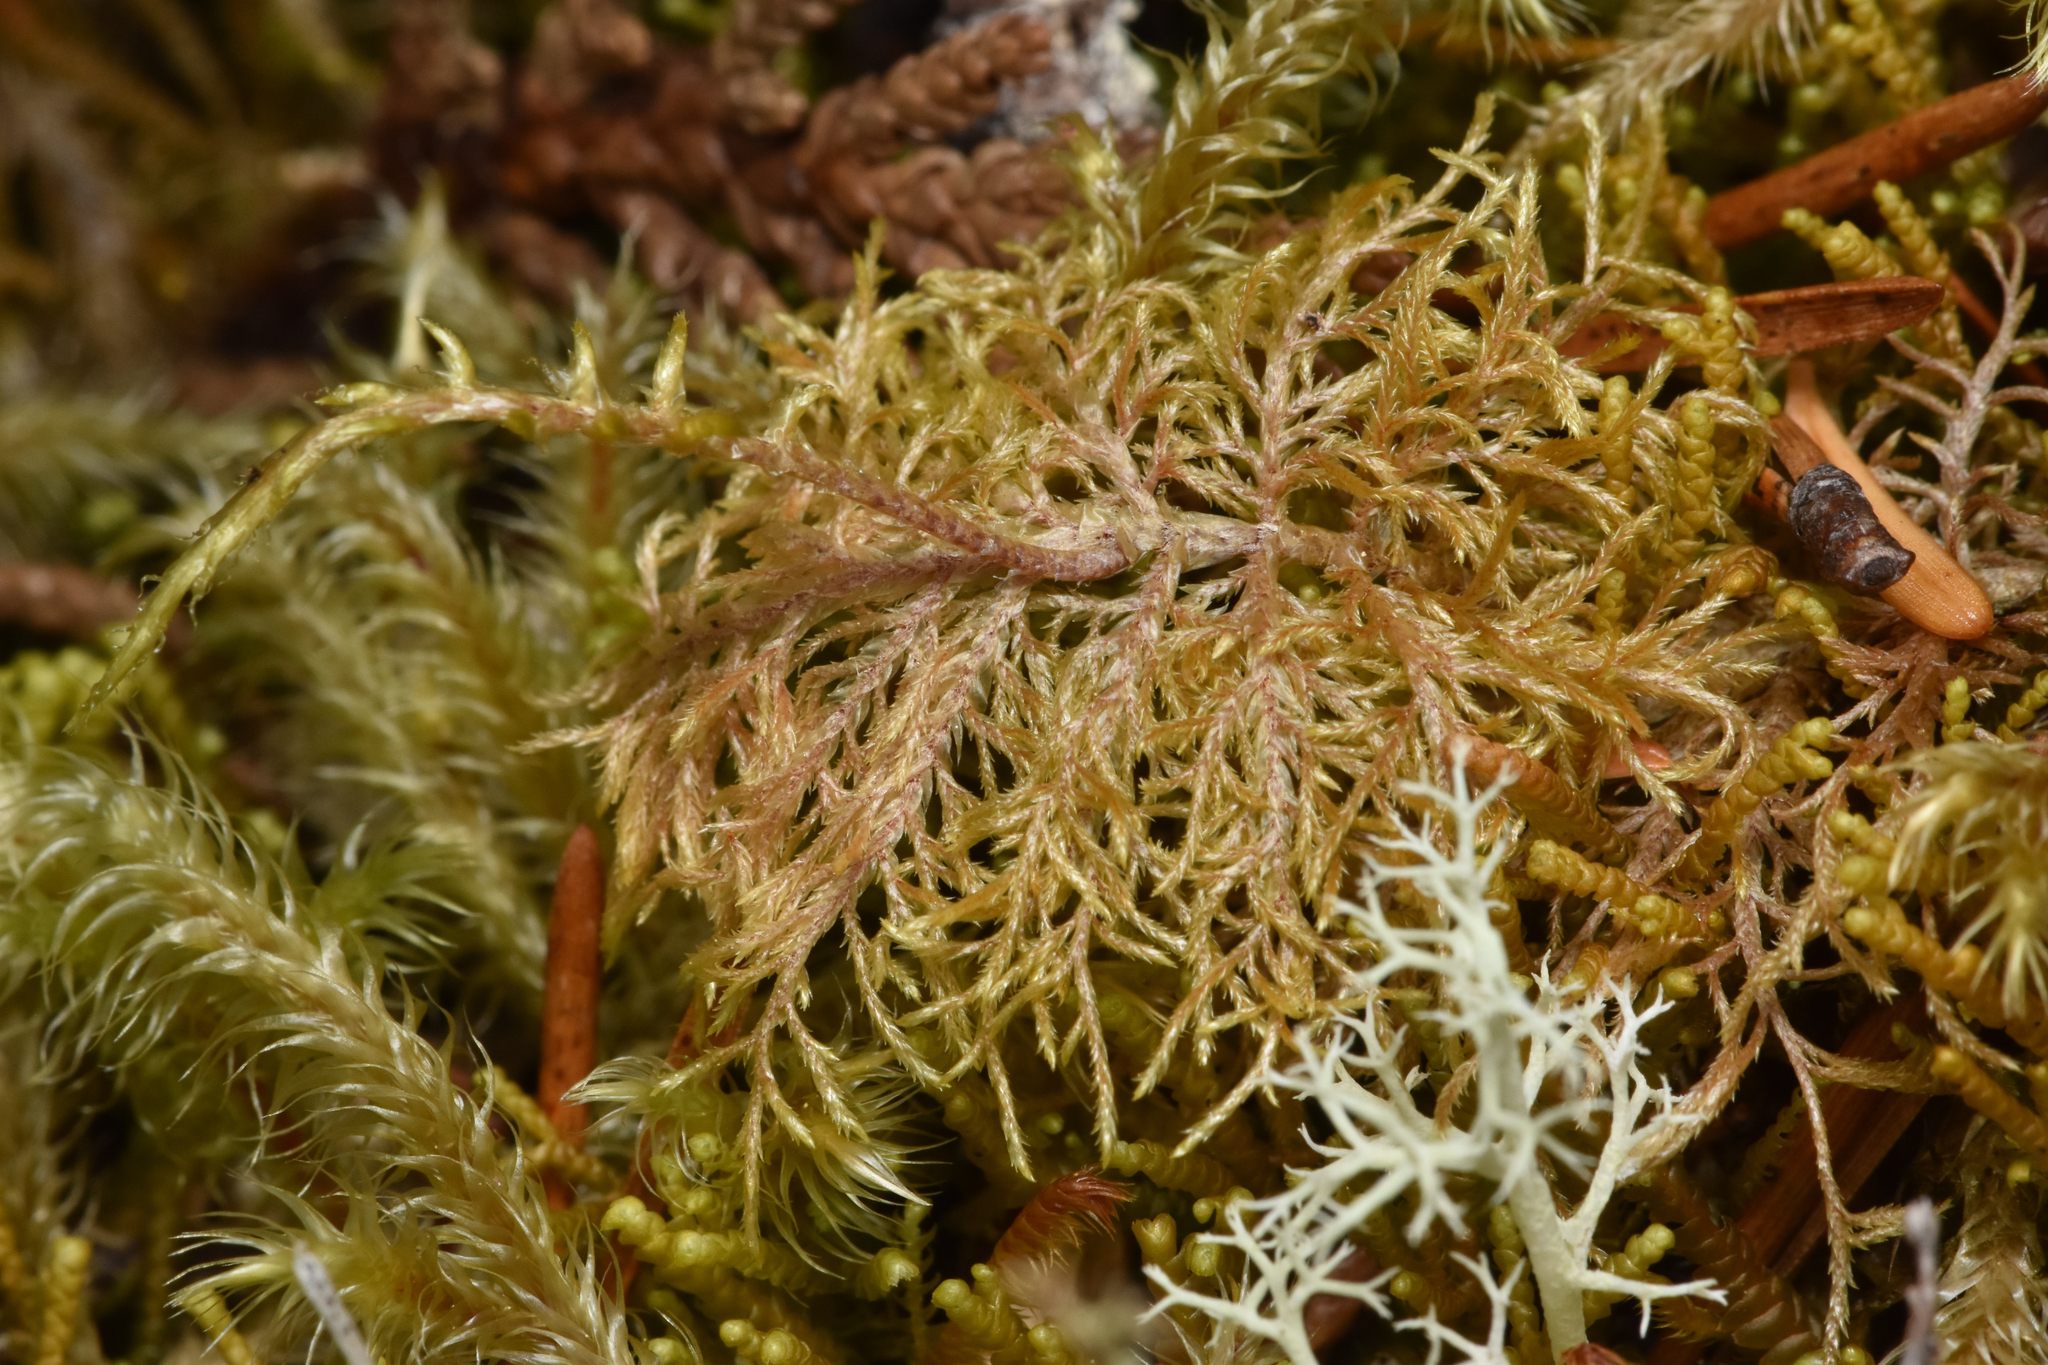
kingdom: Plantae
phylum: Bryophyta
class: Bryopsida
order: Hypnales
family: Hylocomiaceae
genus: Hylocomium
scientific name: Hylocomium splendens
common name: Stairstep moss
